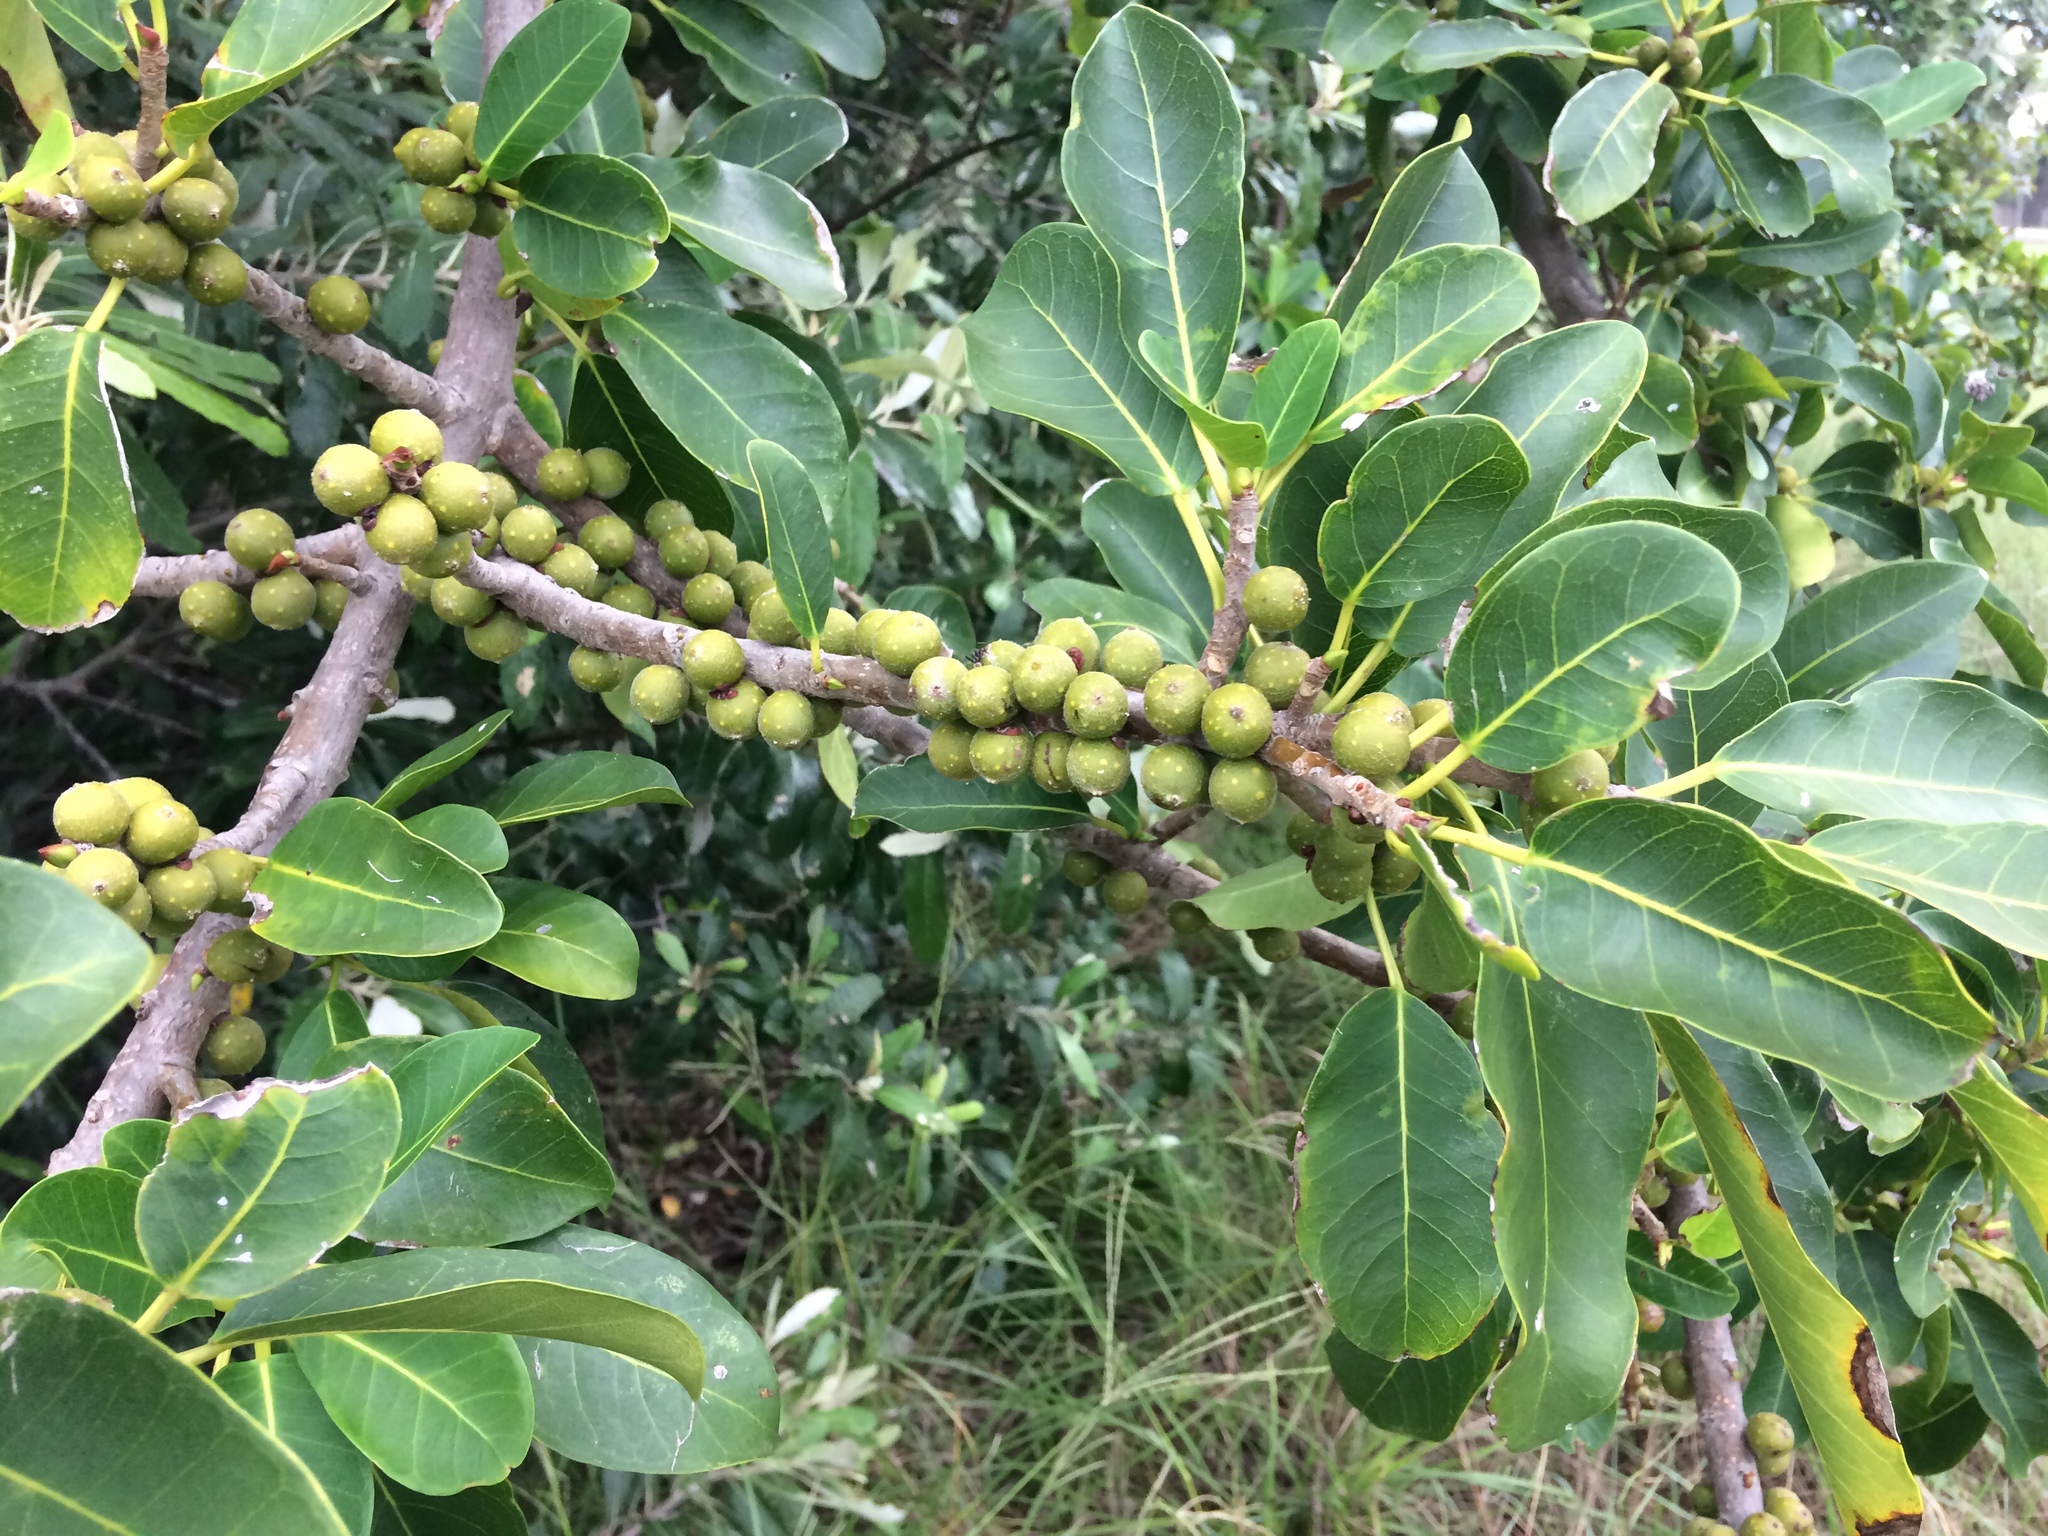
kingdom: Plantae
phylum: Tracheophyta
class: Magnoliopsida
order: Rosales
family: Moraceae
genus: Ficus
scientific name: Ficus thonningii
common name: Fig
